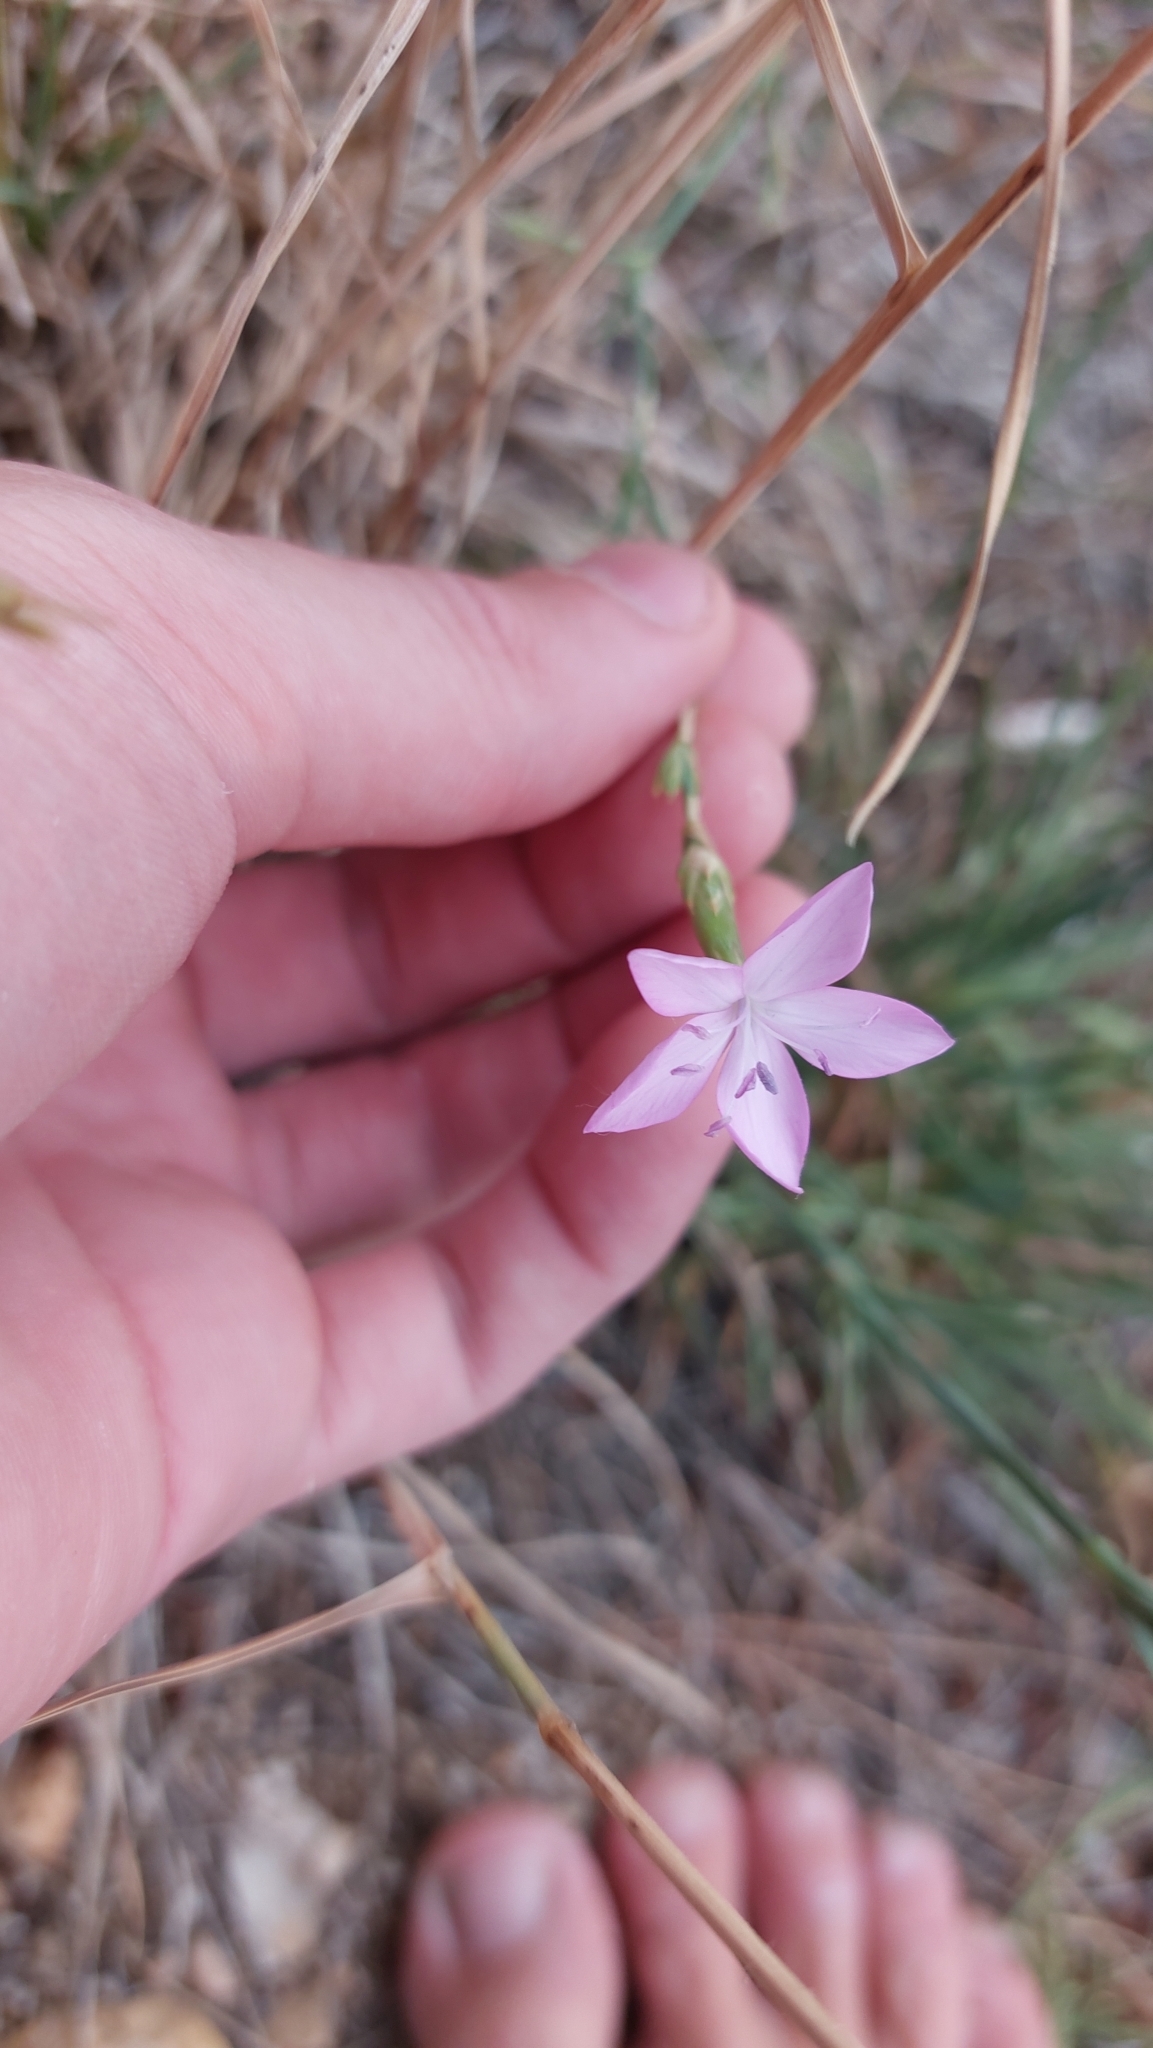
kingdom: Plantae
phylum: Tracheophyta
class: Magnoliopsida
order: Caryophyllales
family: Caryophyllaceae
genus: Dianthus
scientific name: Dianthus sylvestris
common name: Wood pink
